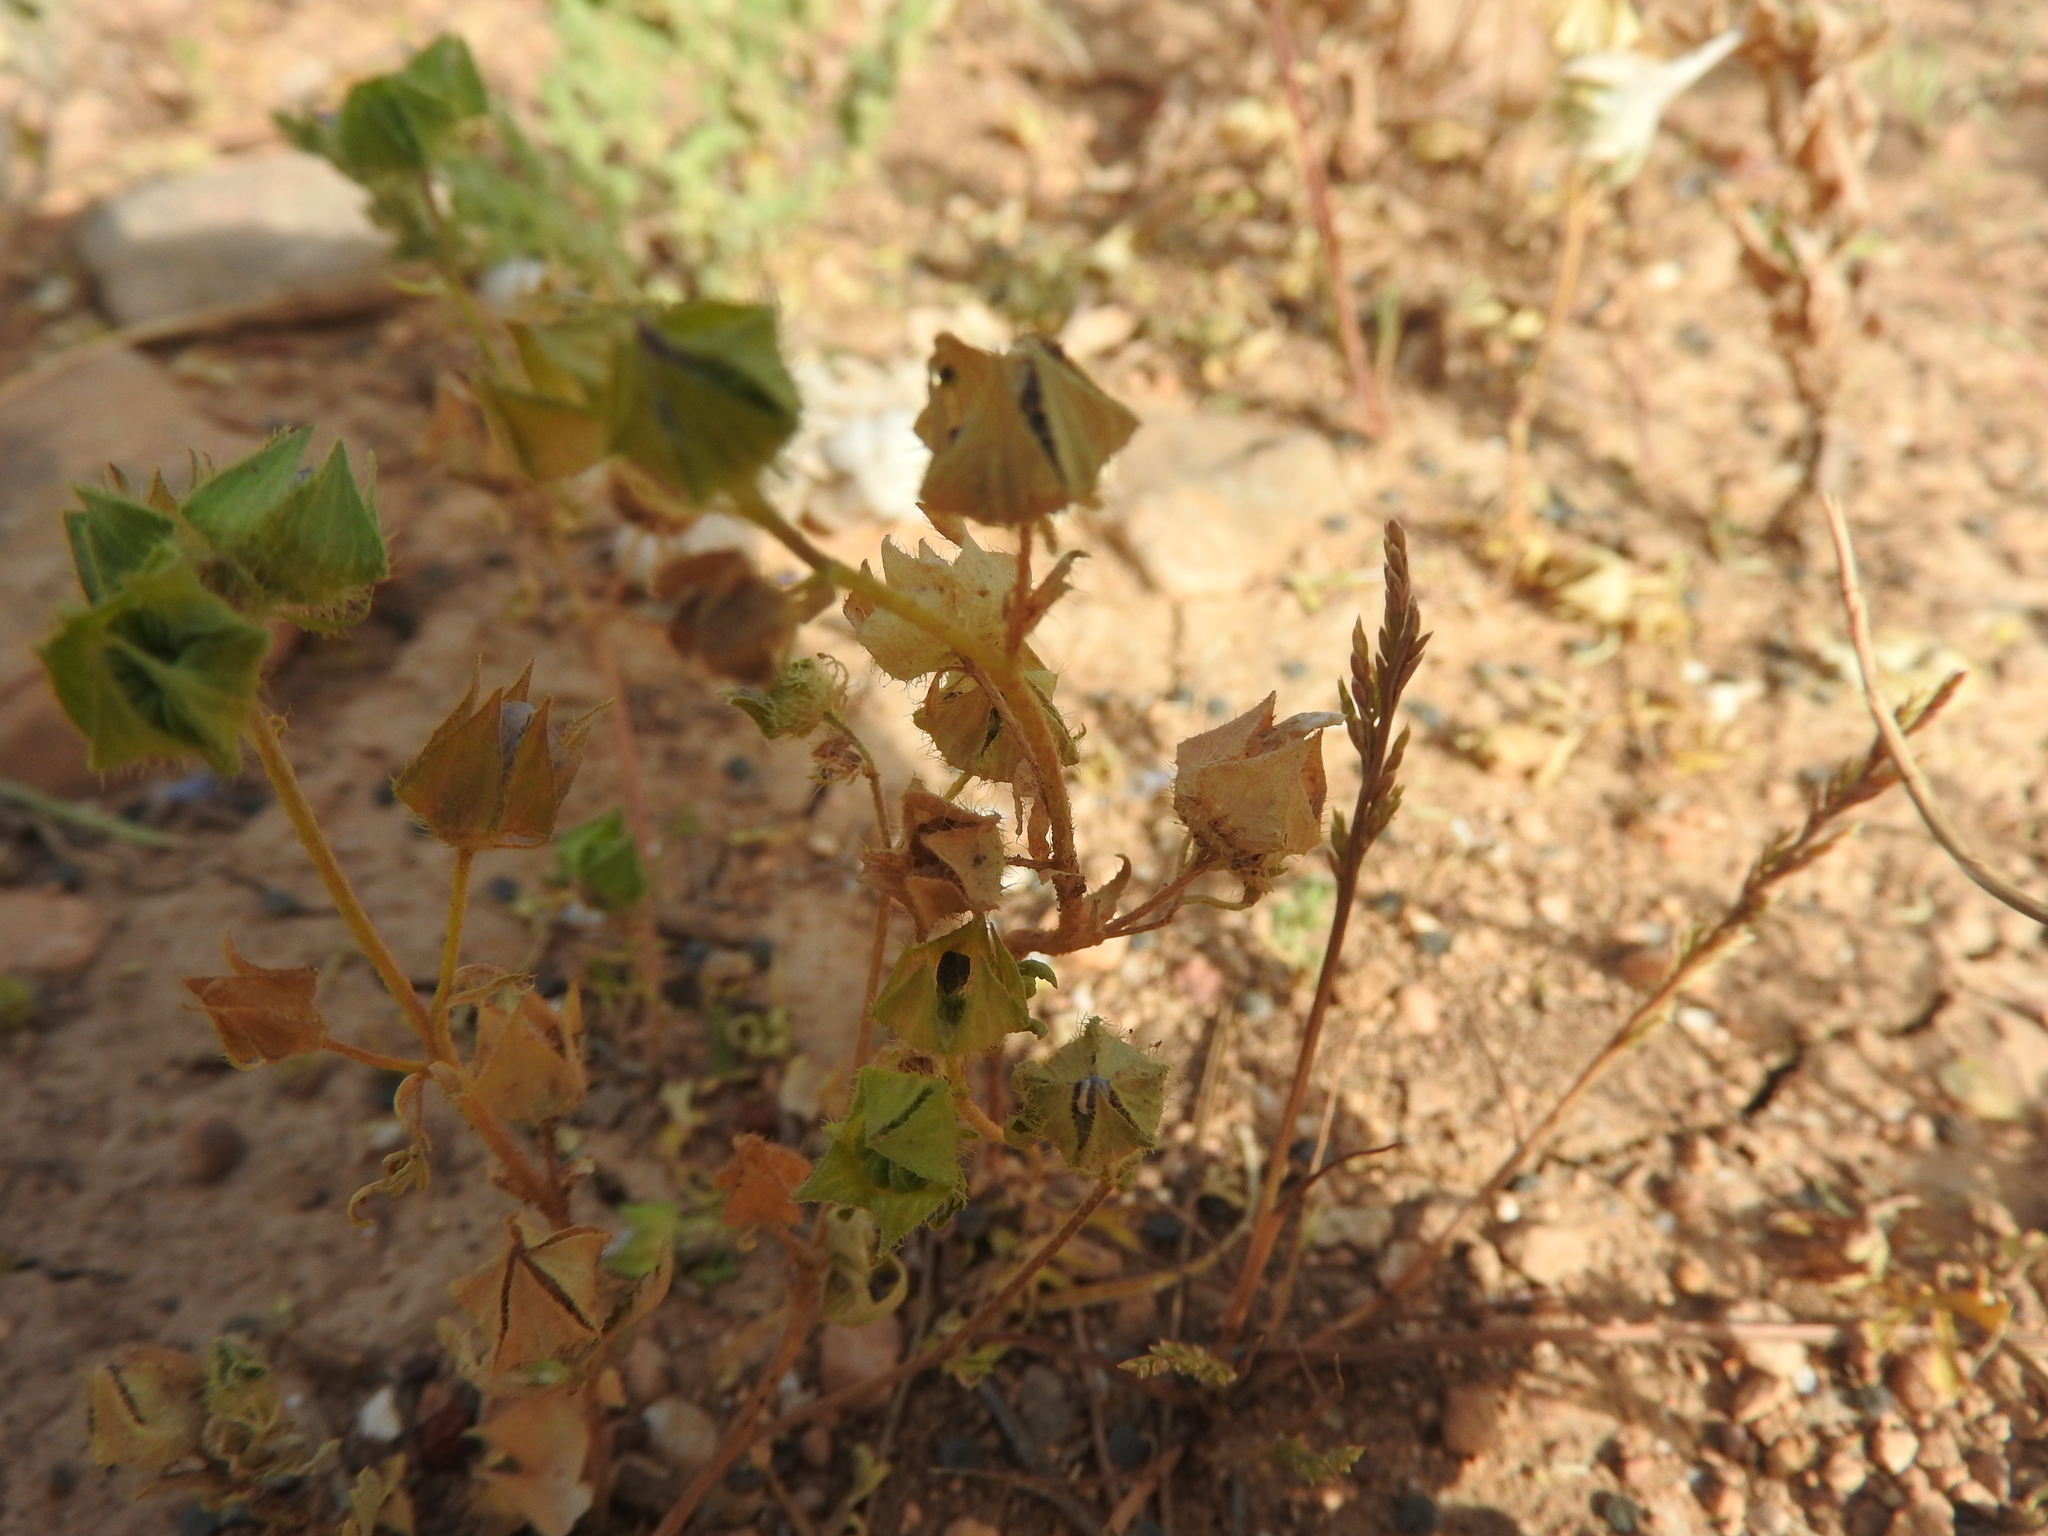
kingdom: Plantae
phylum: Tracheophyta
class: Magnoliopsida
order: Malvales
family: Malvaceae
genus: Malva
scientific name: Malva aegyptia
